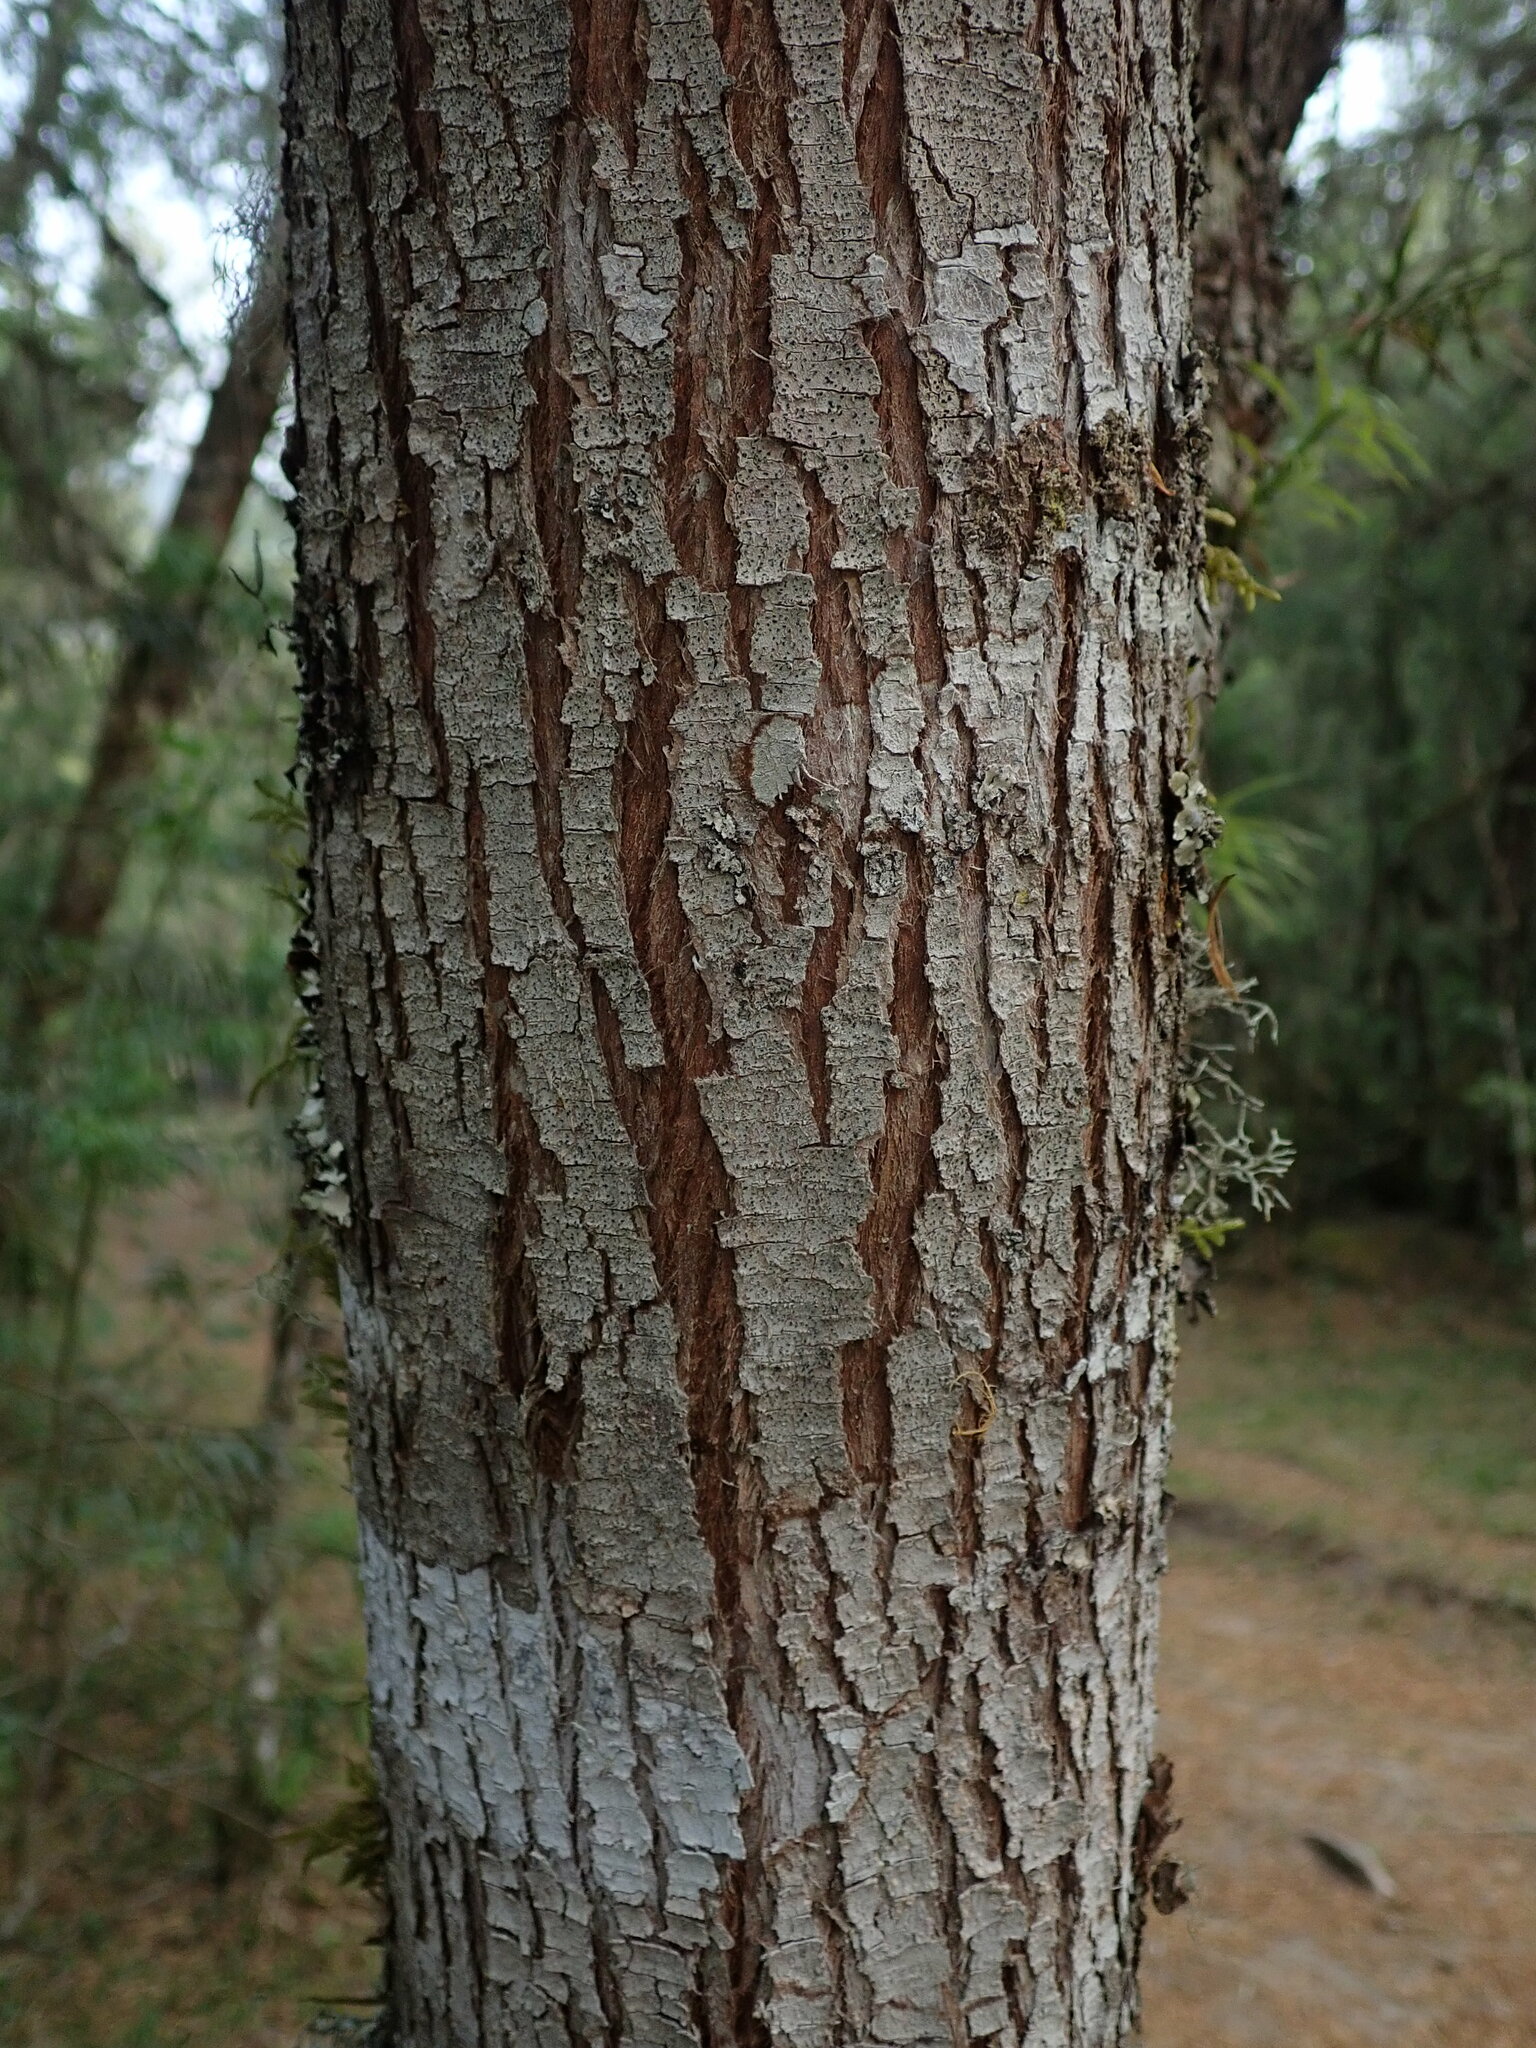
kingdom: Plantae
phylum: Tracheophyta
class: Pinopsida
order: Pinales
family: Podocarpaceae
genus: Podocarpus
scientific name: Podocarpus parlatorei
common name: Pino blanco
